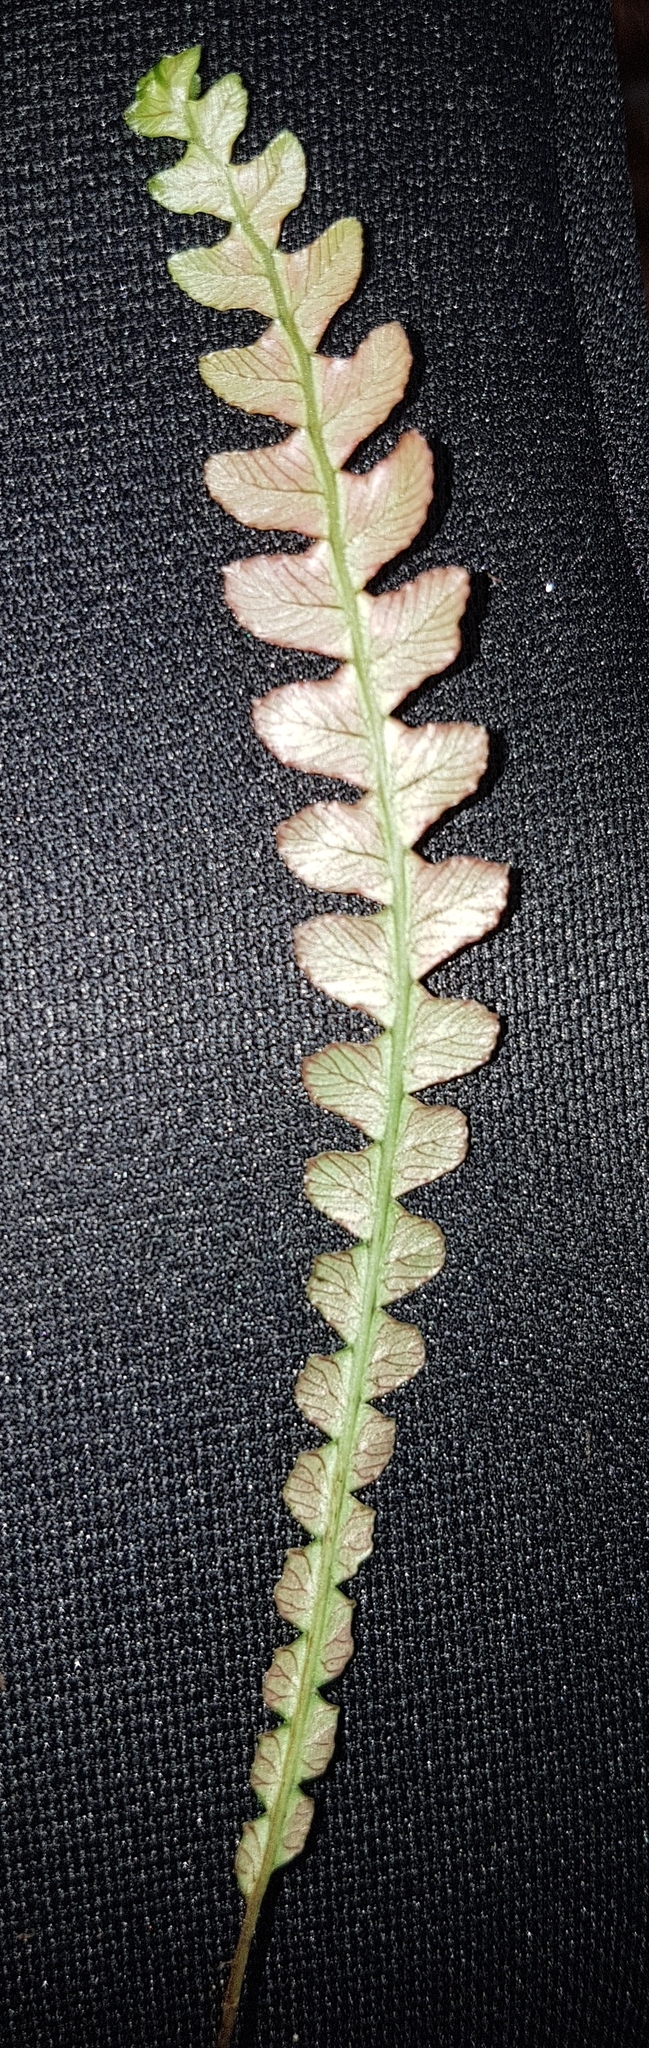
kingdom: Plantae
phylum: Tracheophyta
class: Polypodiopsida
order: Polypodiales
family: Blechnaceae
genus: Austroblechnum
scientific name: Austroblechnum membranaceum
